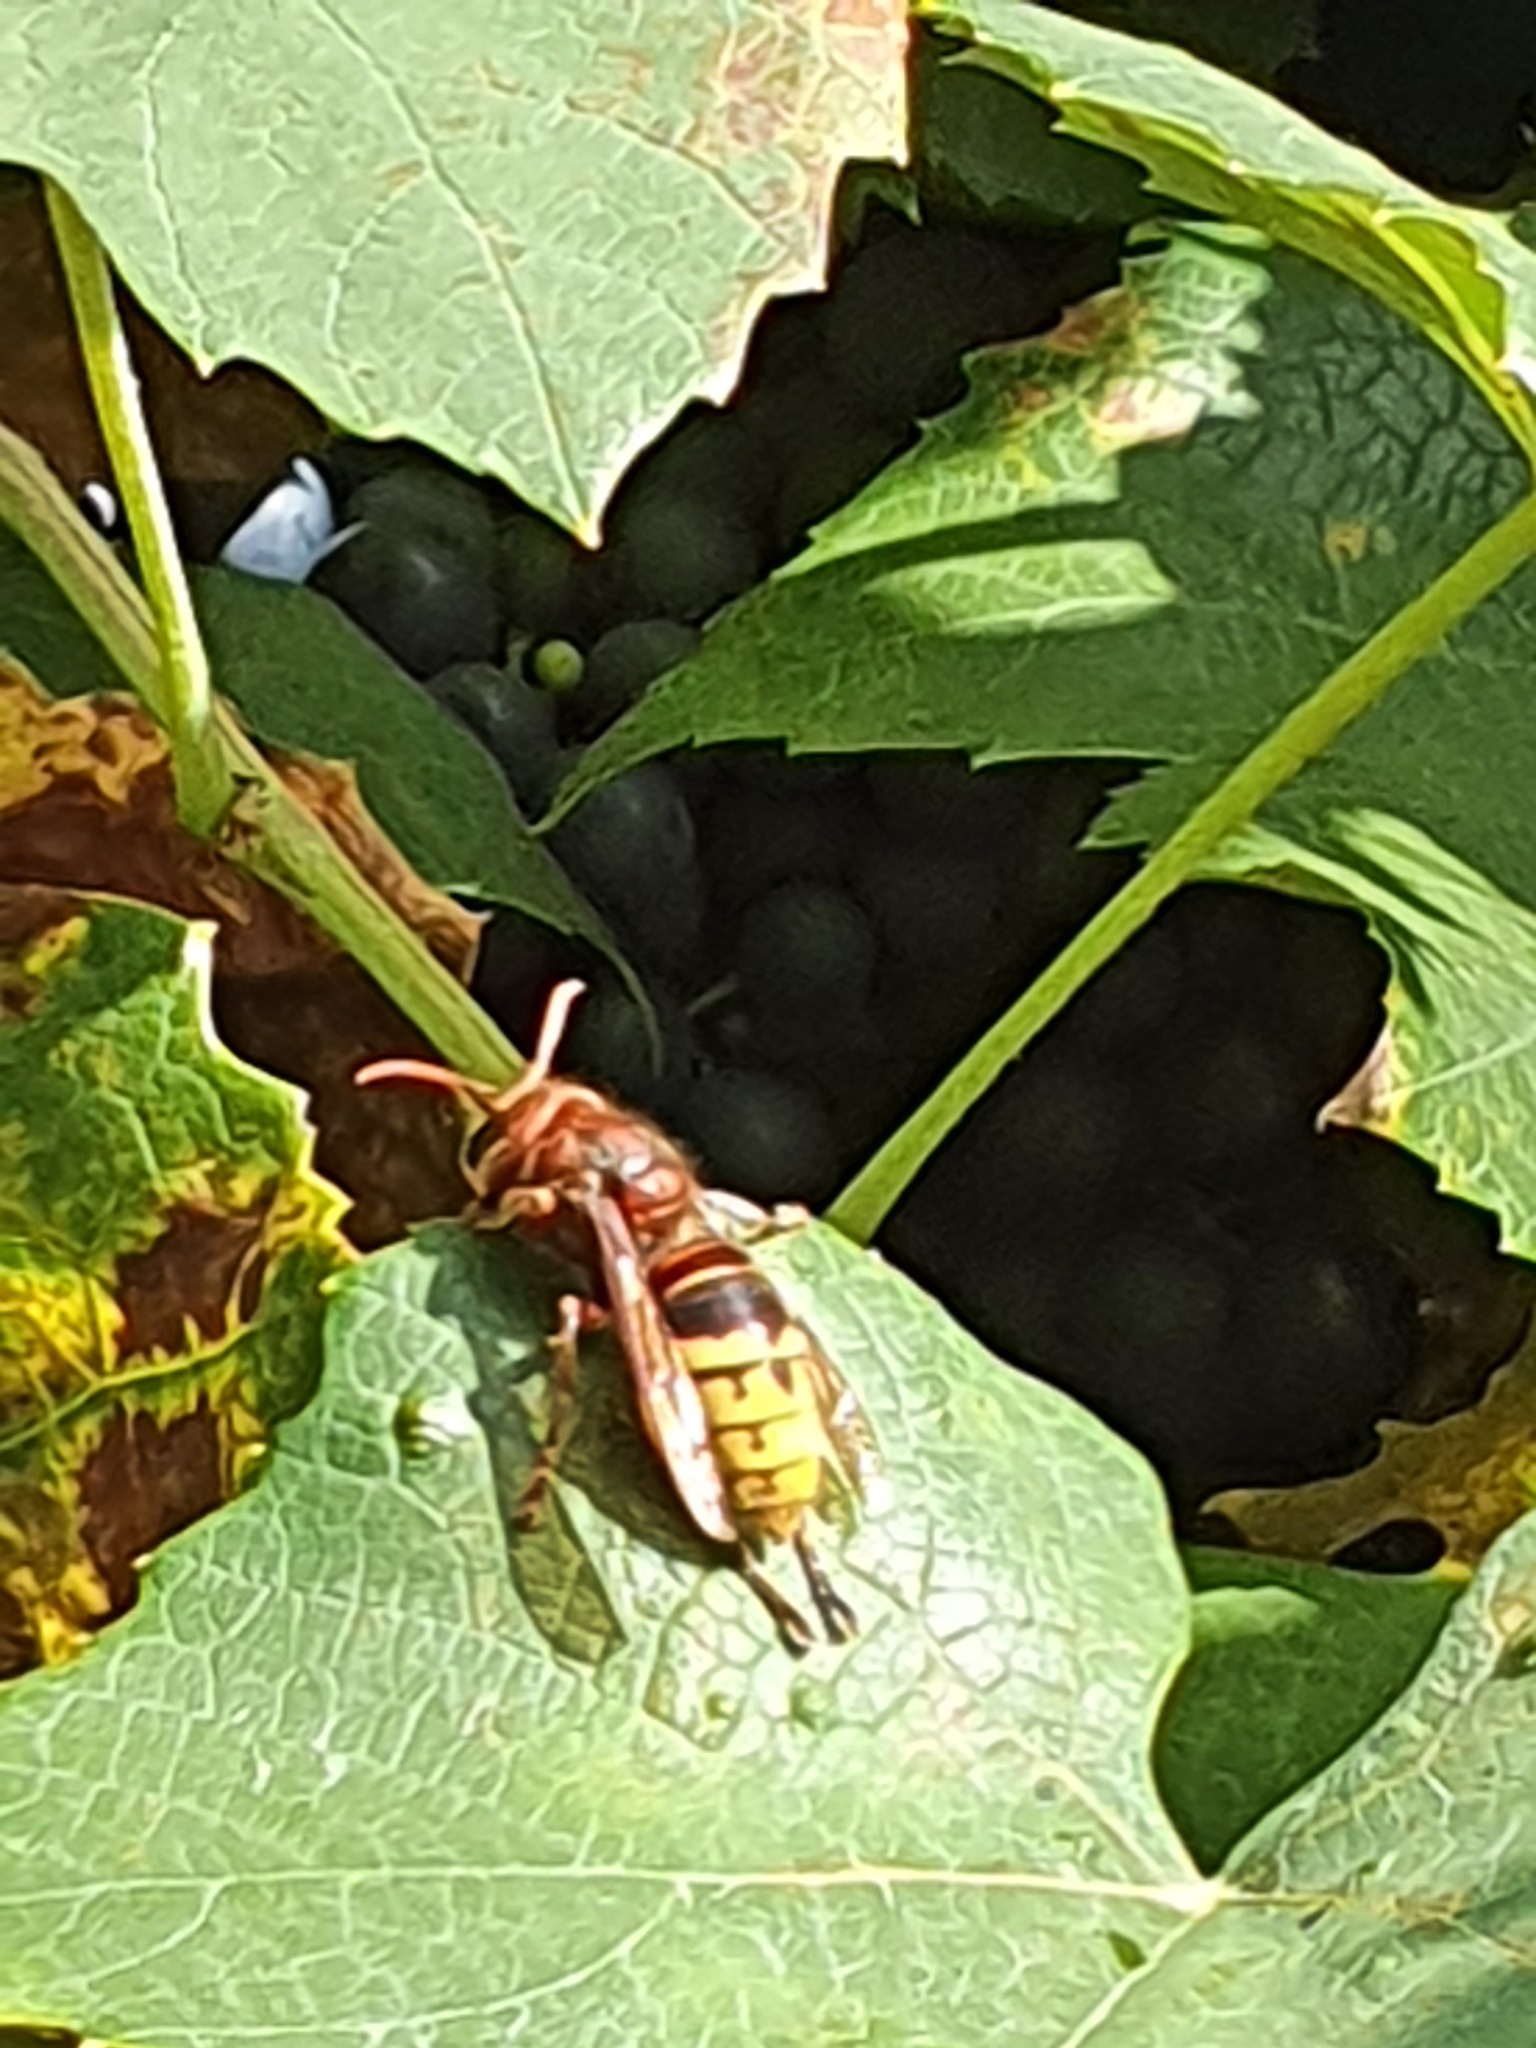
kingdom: Animalia
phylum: Arthropoda
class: Insecta
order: Hymenoptera
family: Vespidae
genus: Vespa
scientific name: Vespa crabro
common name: Hornet
